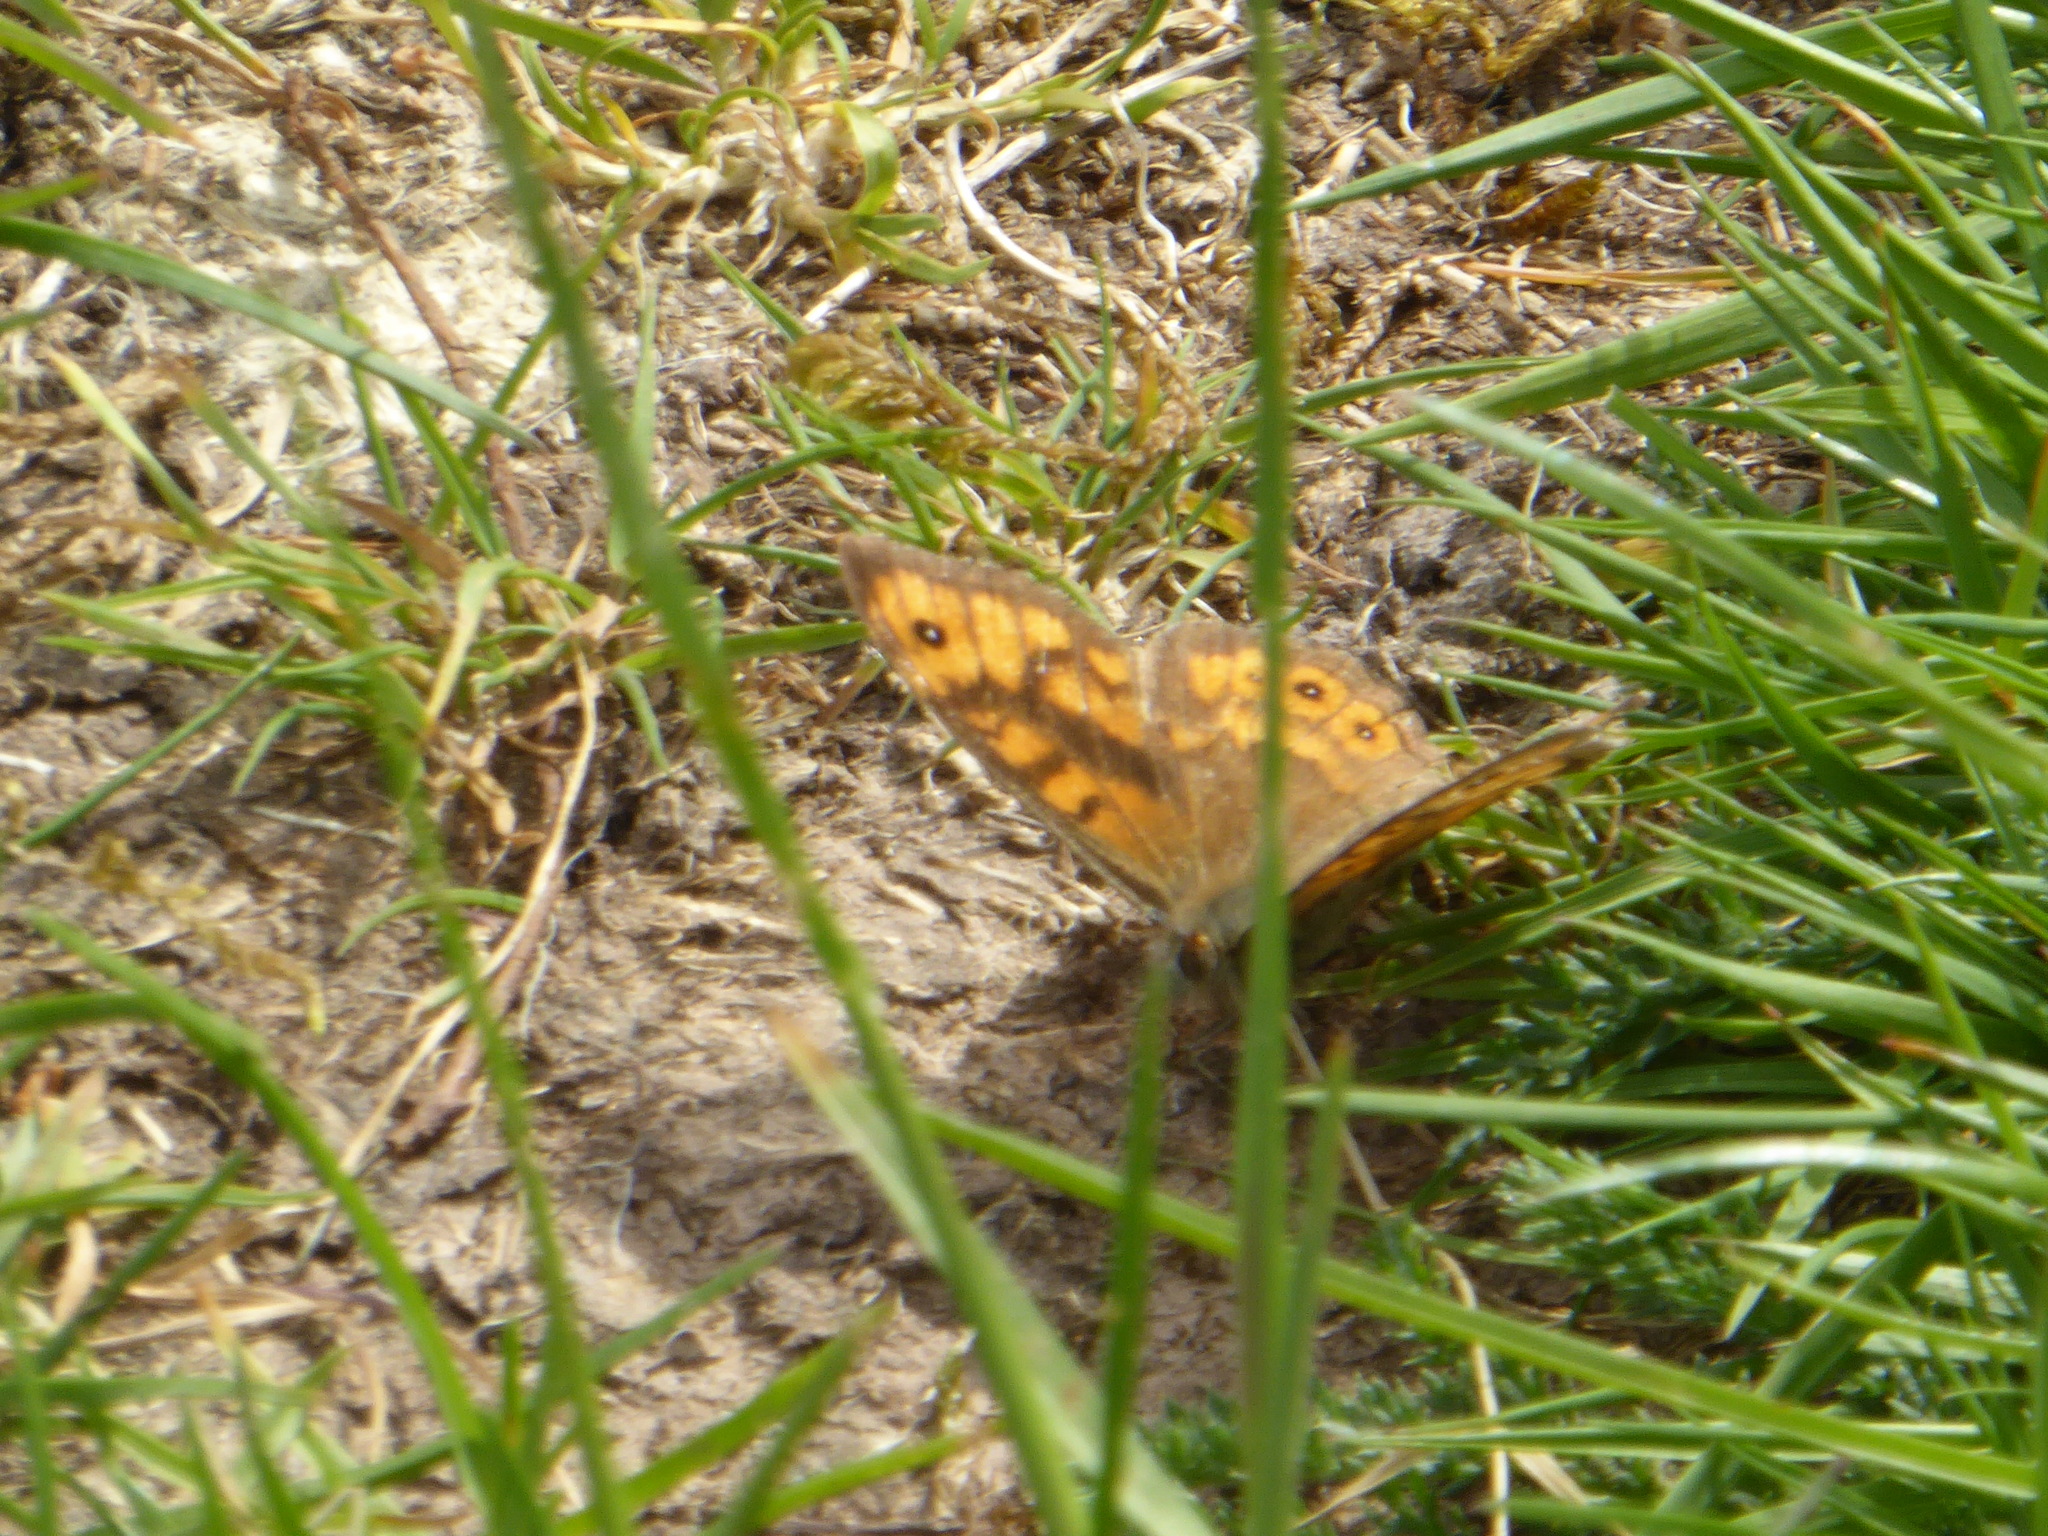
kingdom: Animalia
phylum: Arthropoda
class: Insecta
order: Lepidoptera
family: Nymphalidae
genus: Pararge
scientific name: Pararge Lasiommata megera
